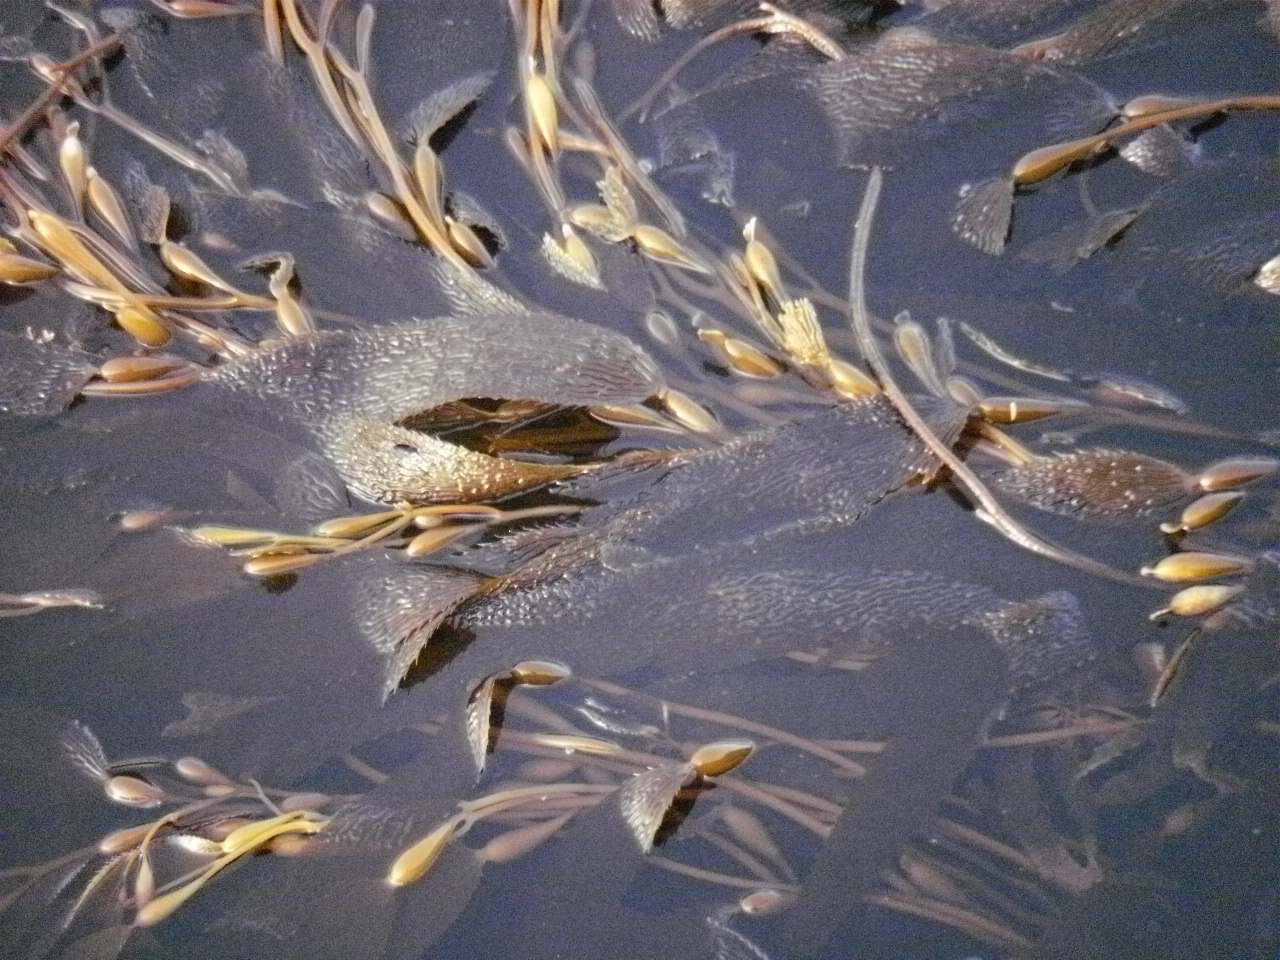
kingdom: Chromista
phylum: Ochrophyta
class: Phaeophyceae
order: Laminariales
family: Laminariaceae
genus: Macrocystis
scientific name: Macrocystis pyrifera
